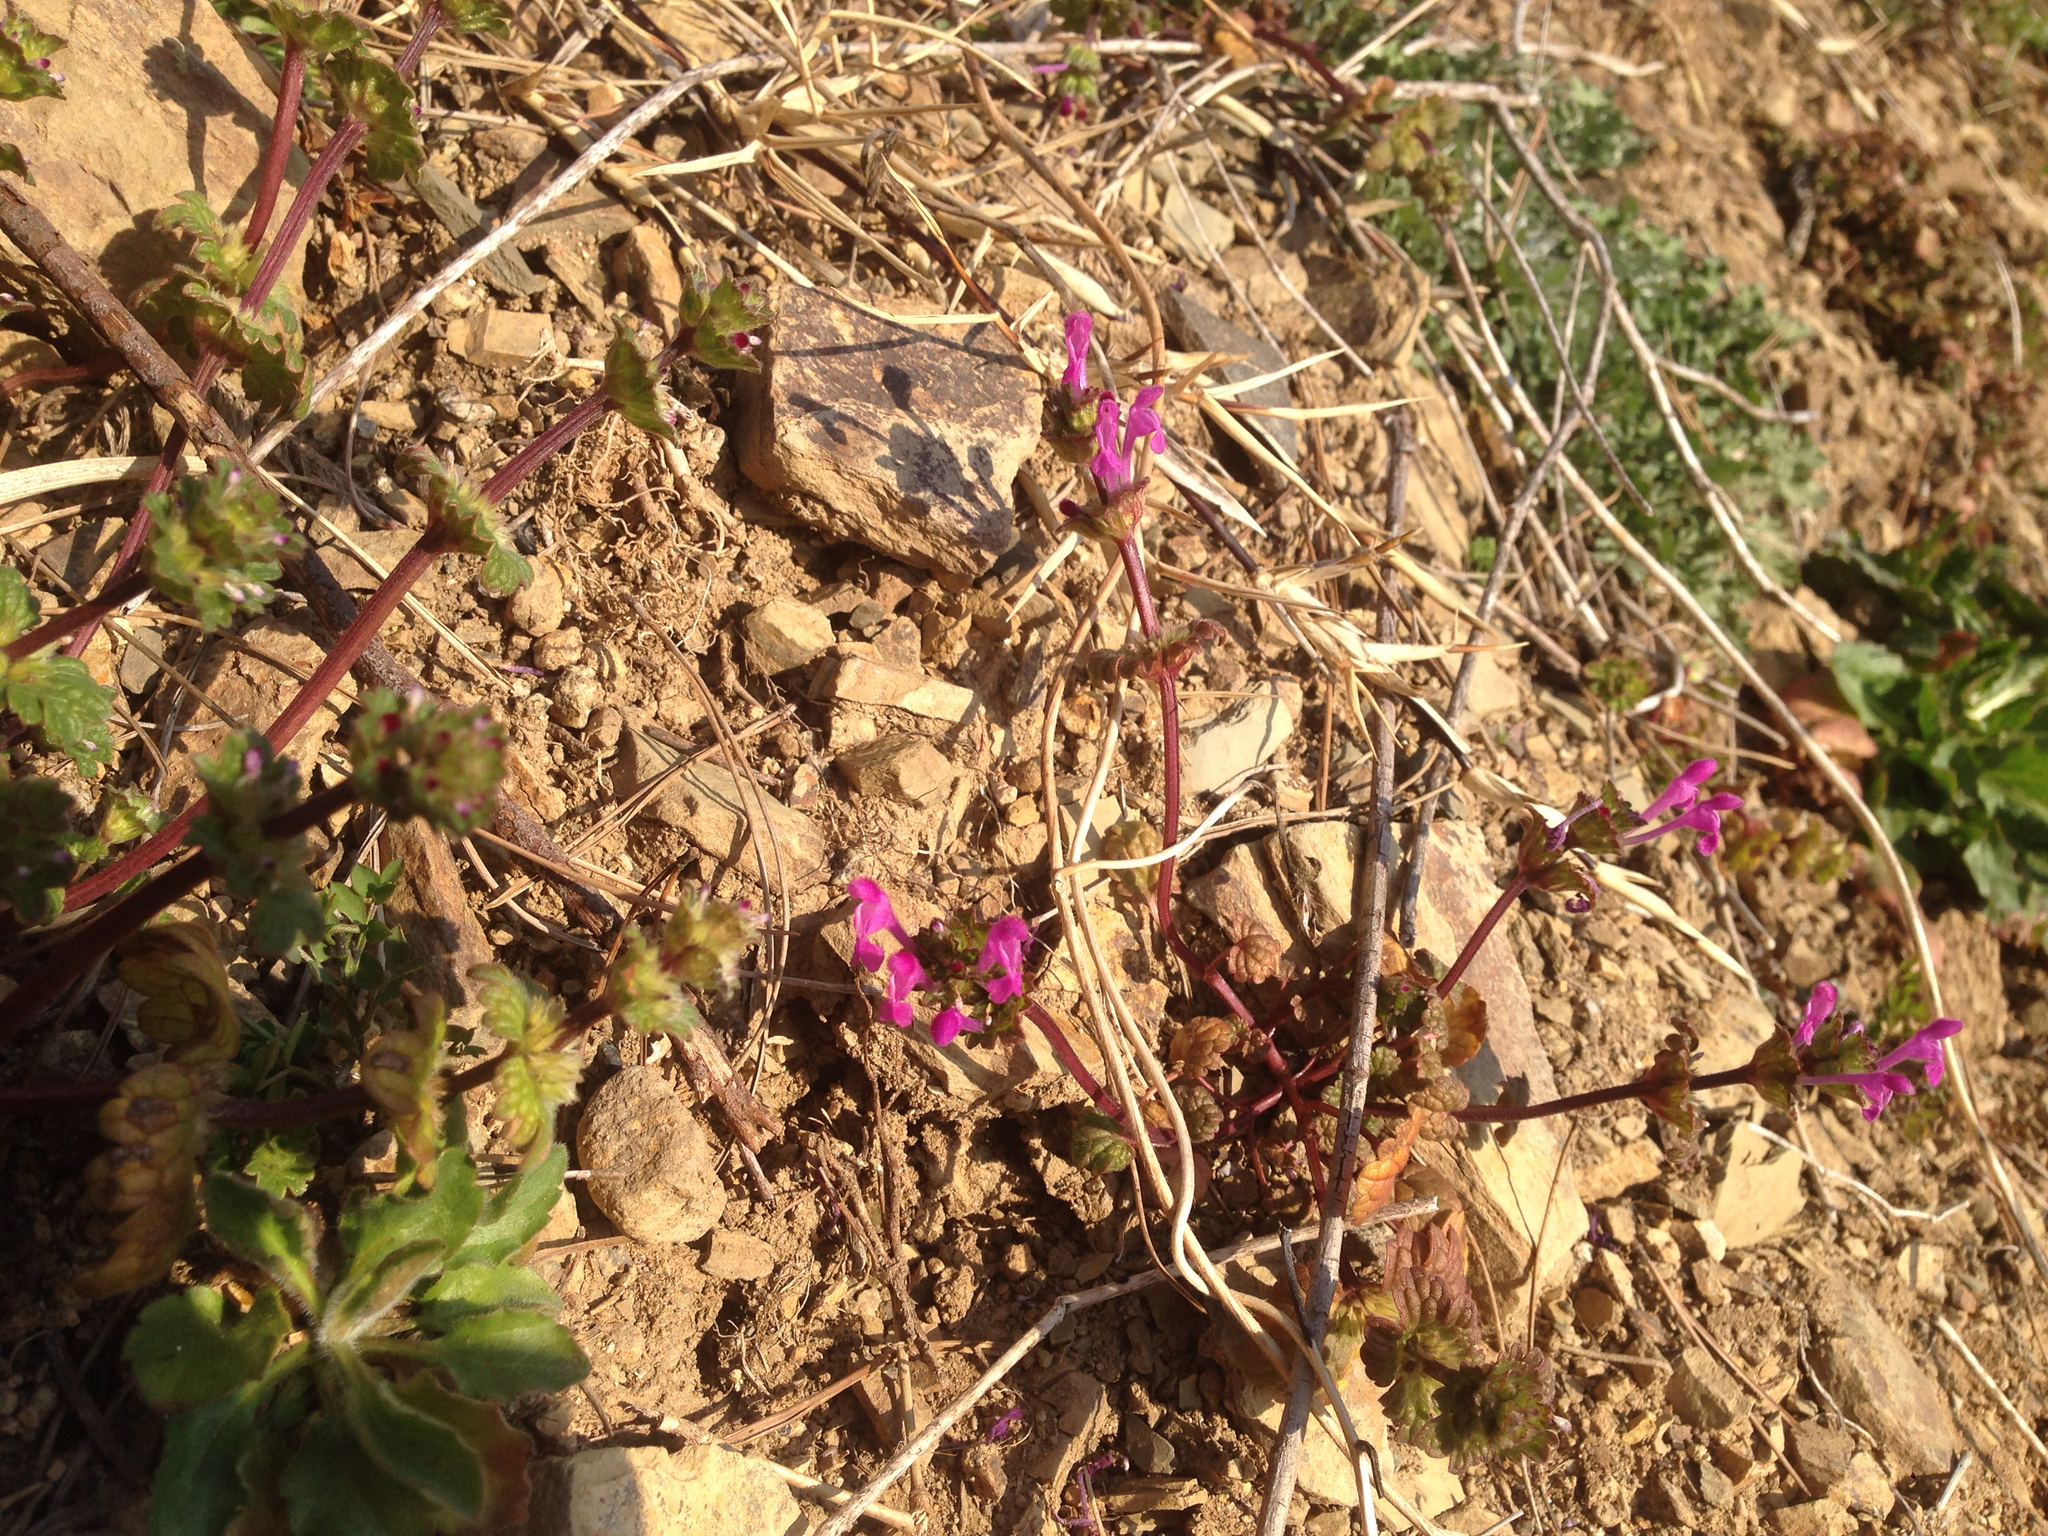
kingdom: Plantae
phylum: Tracheophyta
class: Magnoliopsida
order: Lamiales
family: Lamiaceae
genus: Lamium
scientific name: Lamium amplexicaule
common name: Henbit dead-nettle
